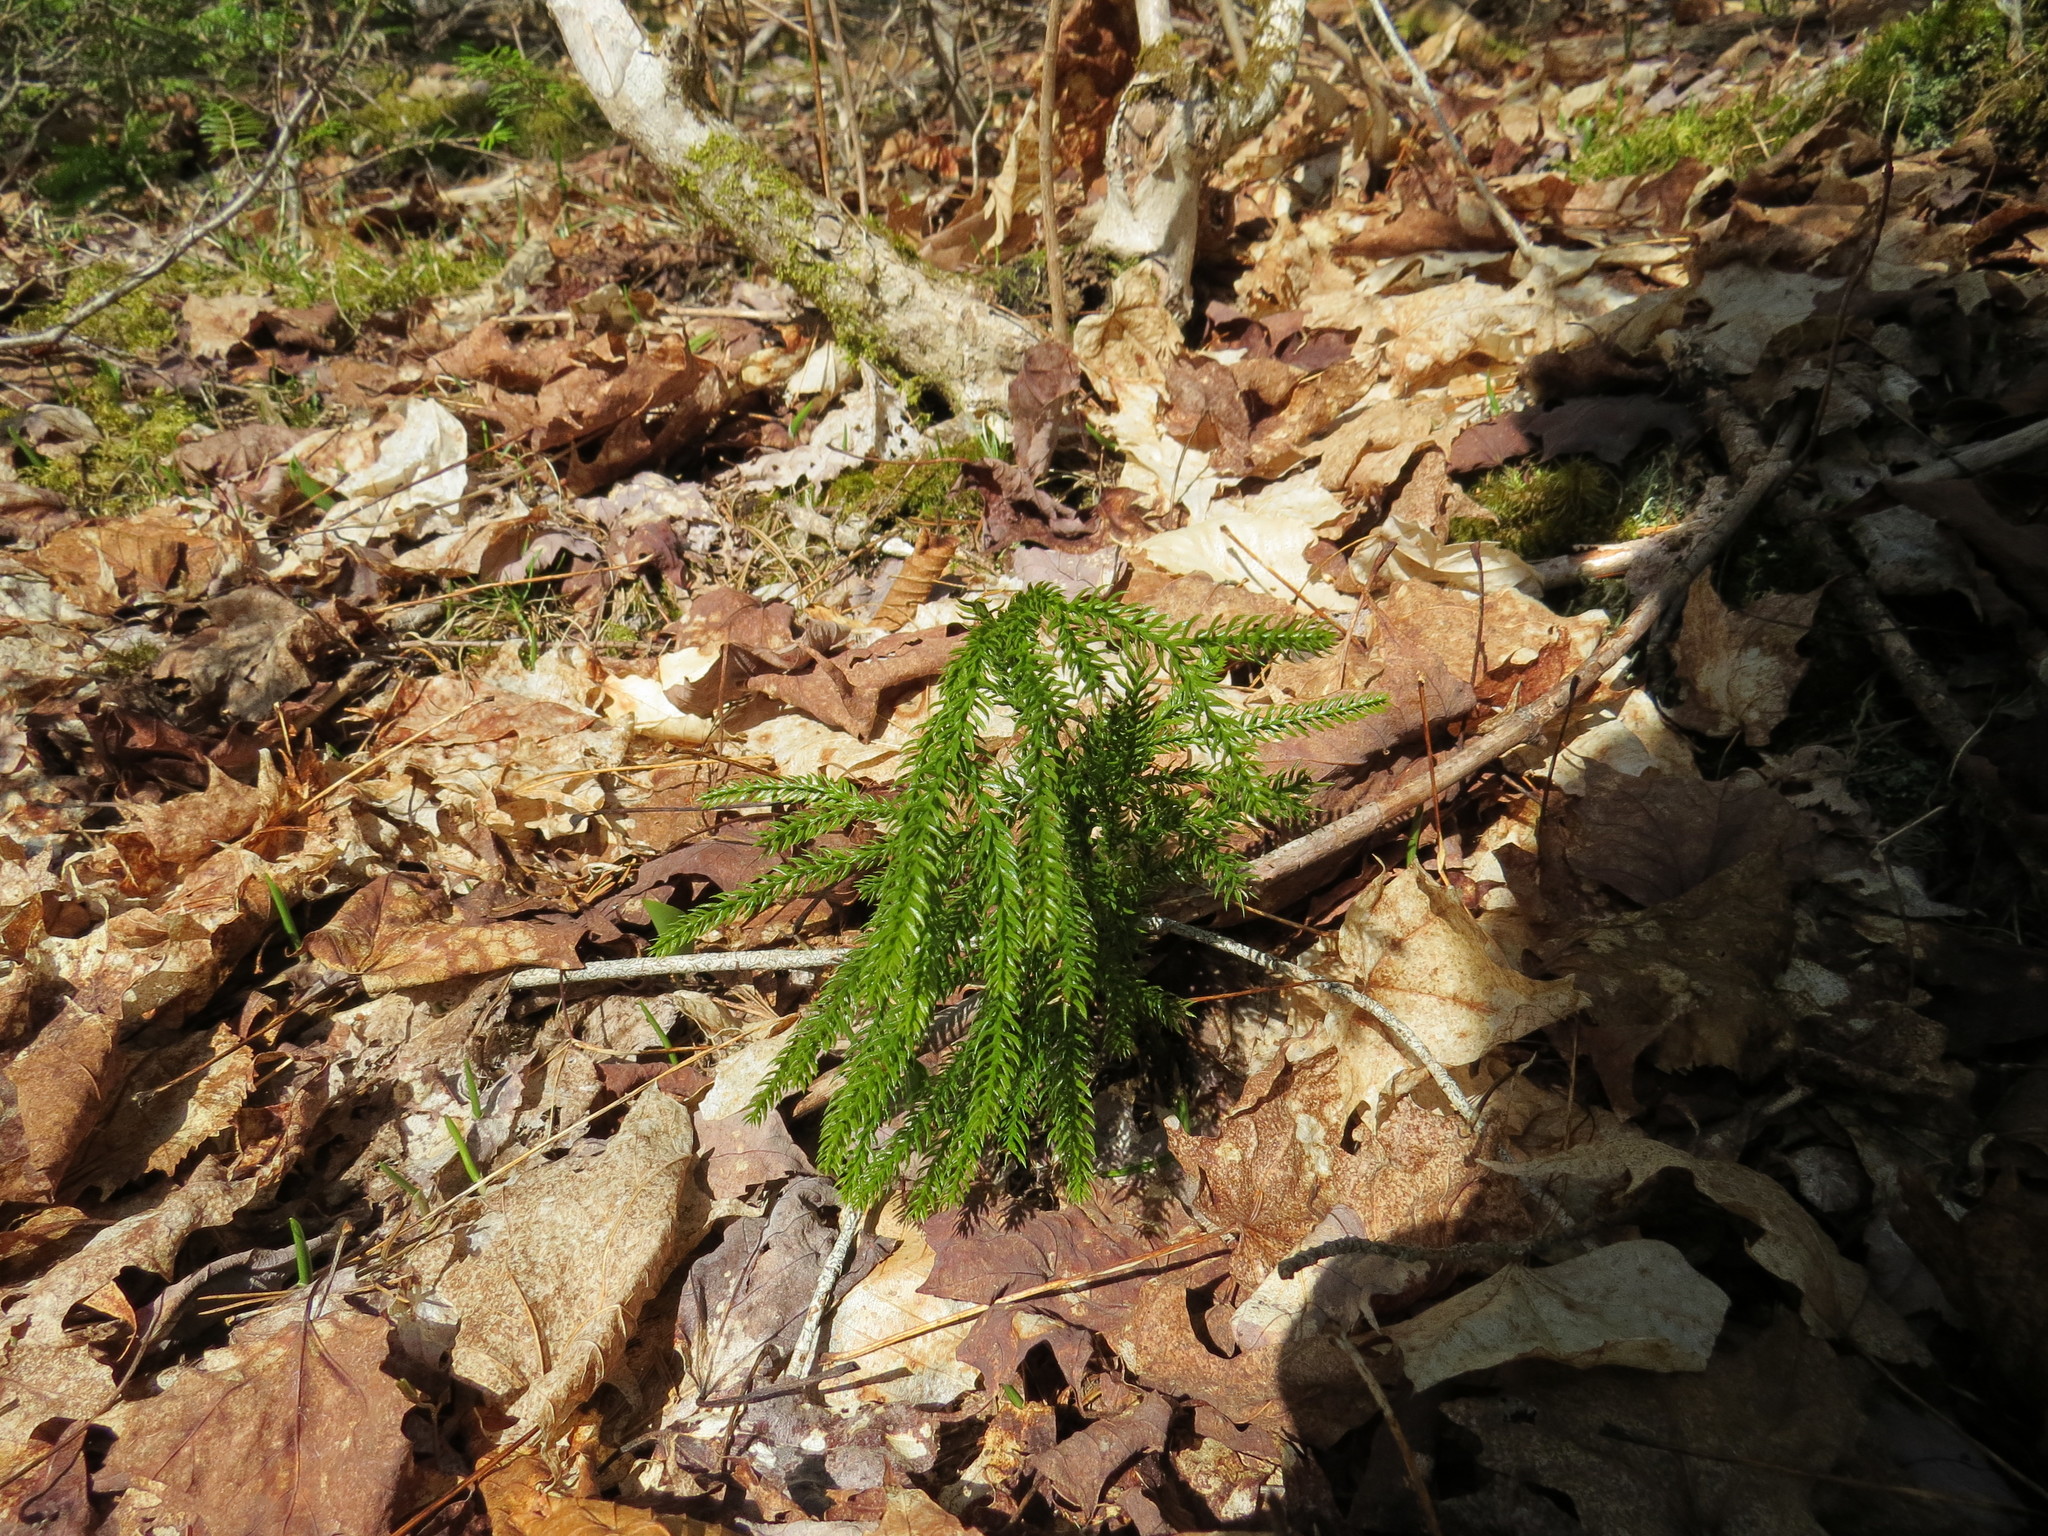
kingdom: Plantae
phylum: Tracheophyta
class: Lycopodiopsida
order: Lycopodiales
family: Lycopodiaceae
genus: Dendrolycopodium
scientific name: Dendrolycopodium dendroideum
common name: Northern tree-clubmoss
